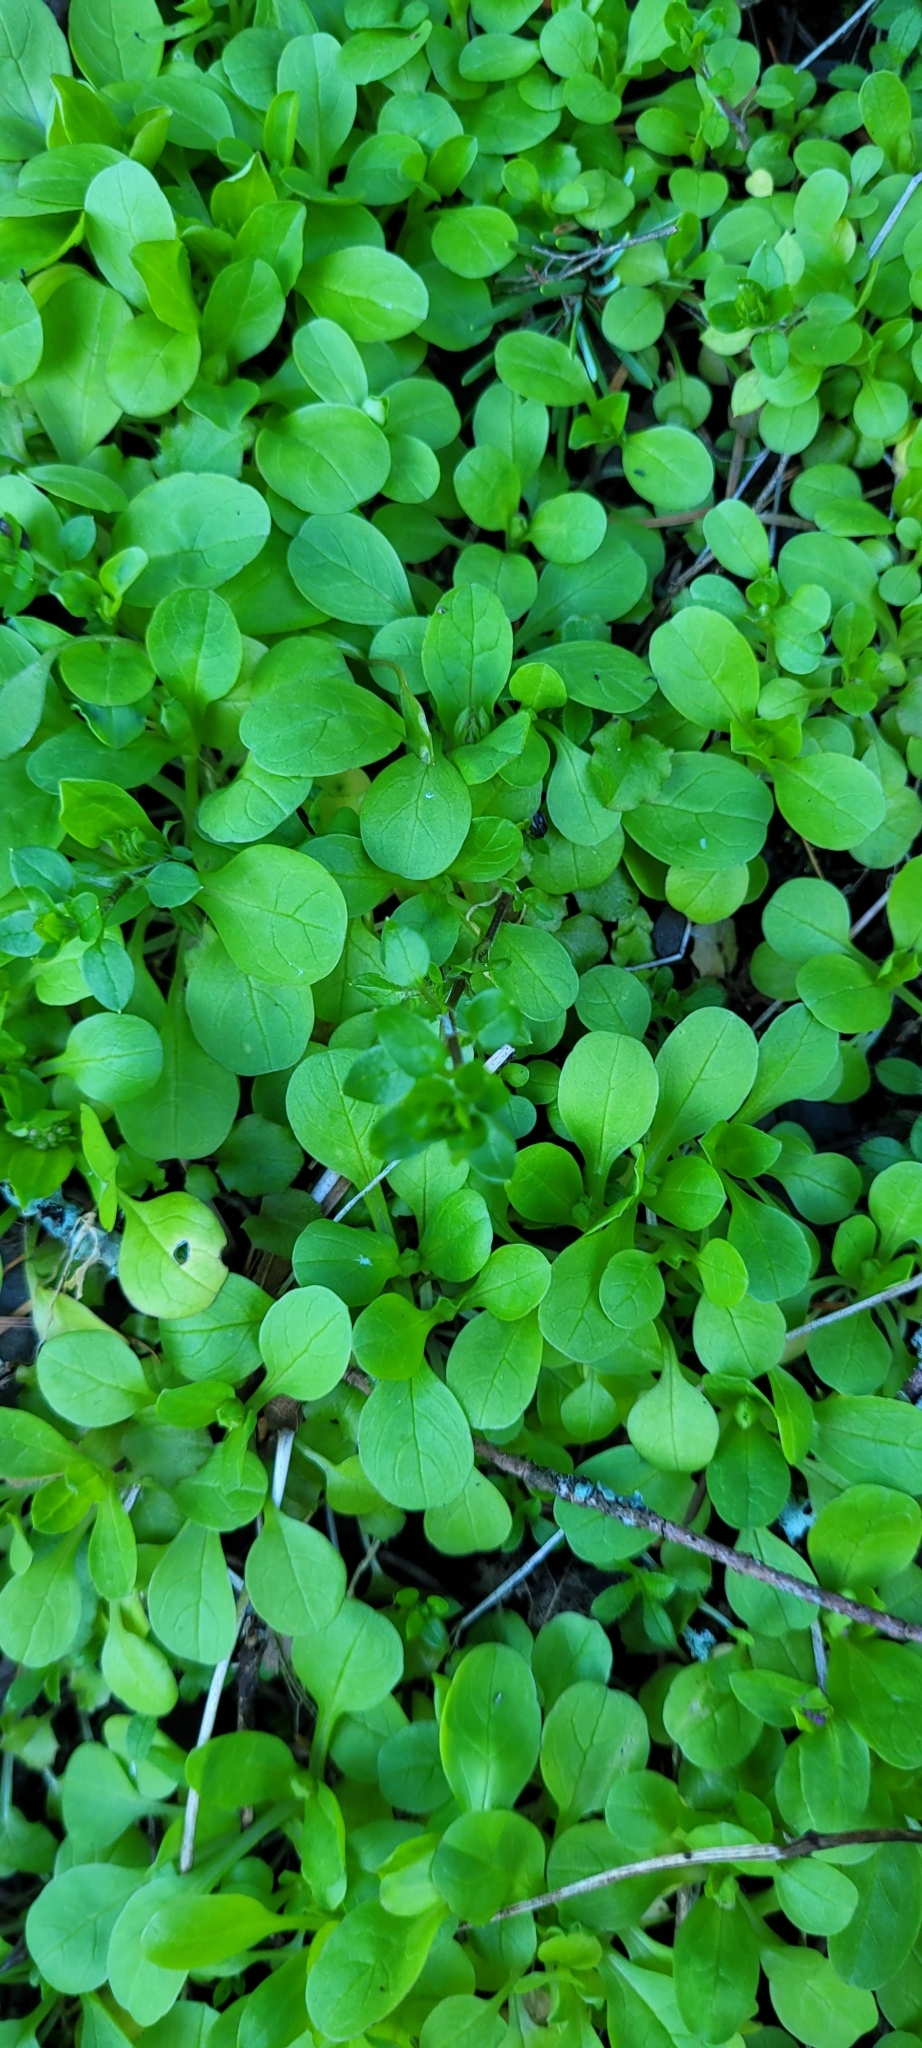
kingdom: Animalia
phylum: Mollusca
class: Gastropoda
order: Stylommatophora
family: Ariolimacidae
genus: Ariolimax
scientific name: Ariolimax columbianus
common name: Pacific banana slug
